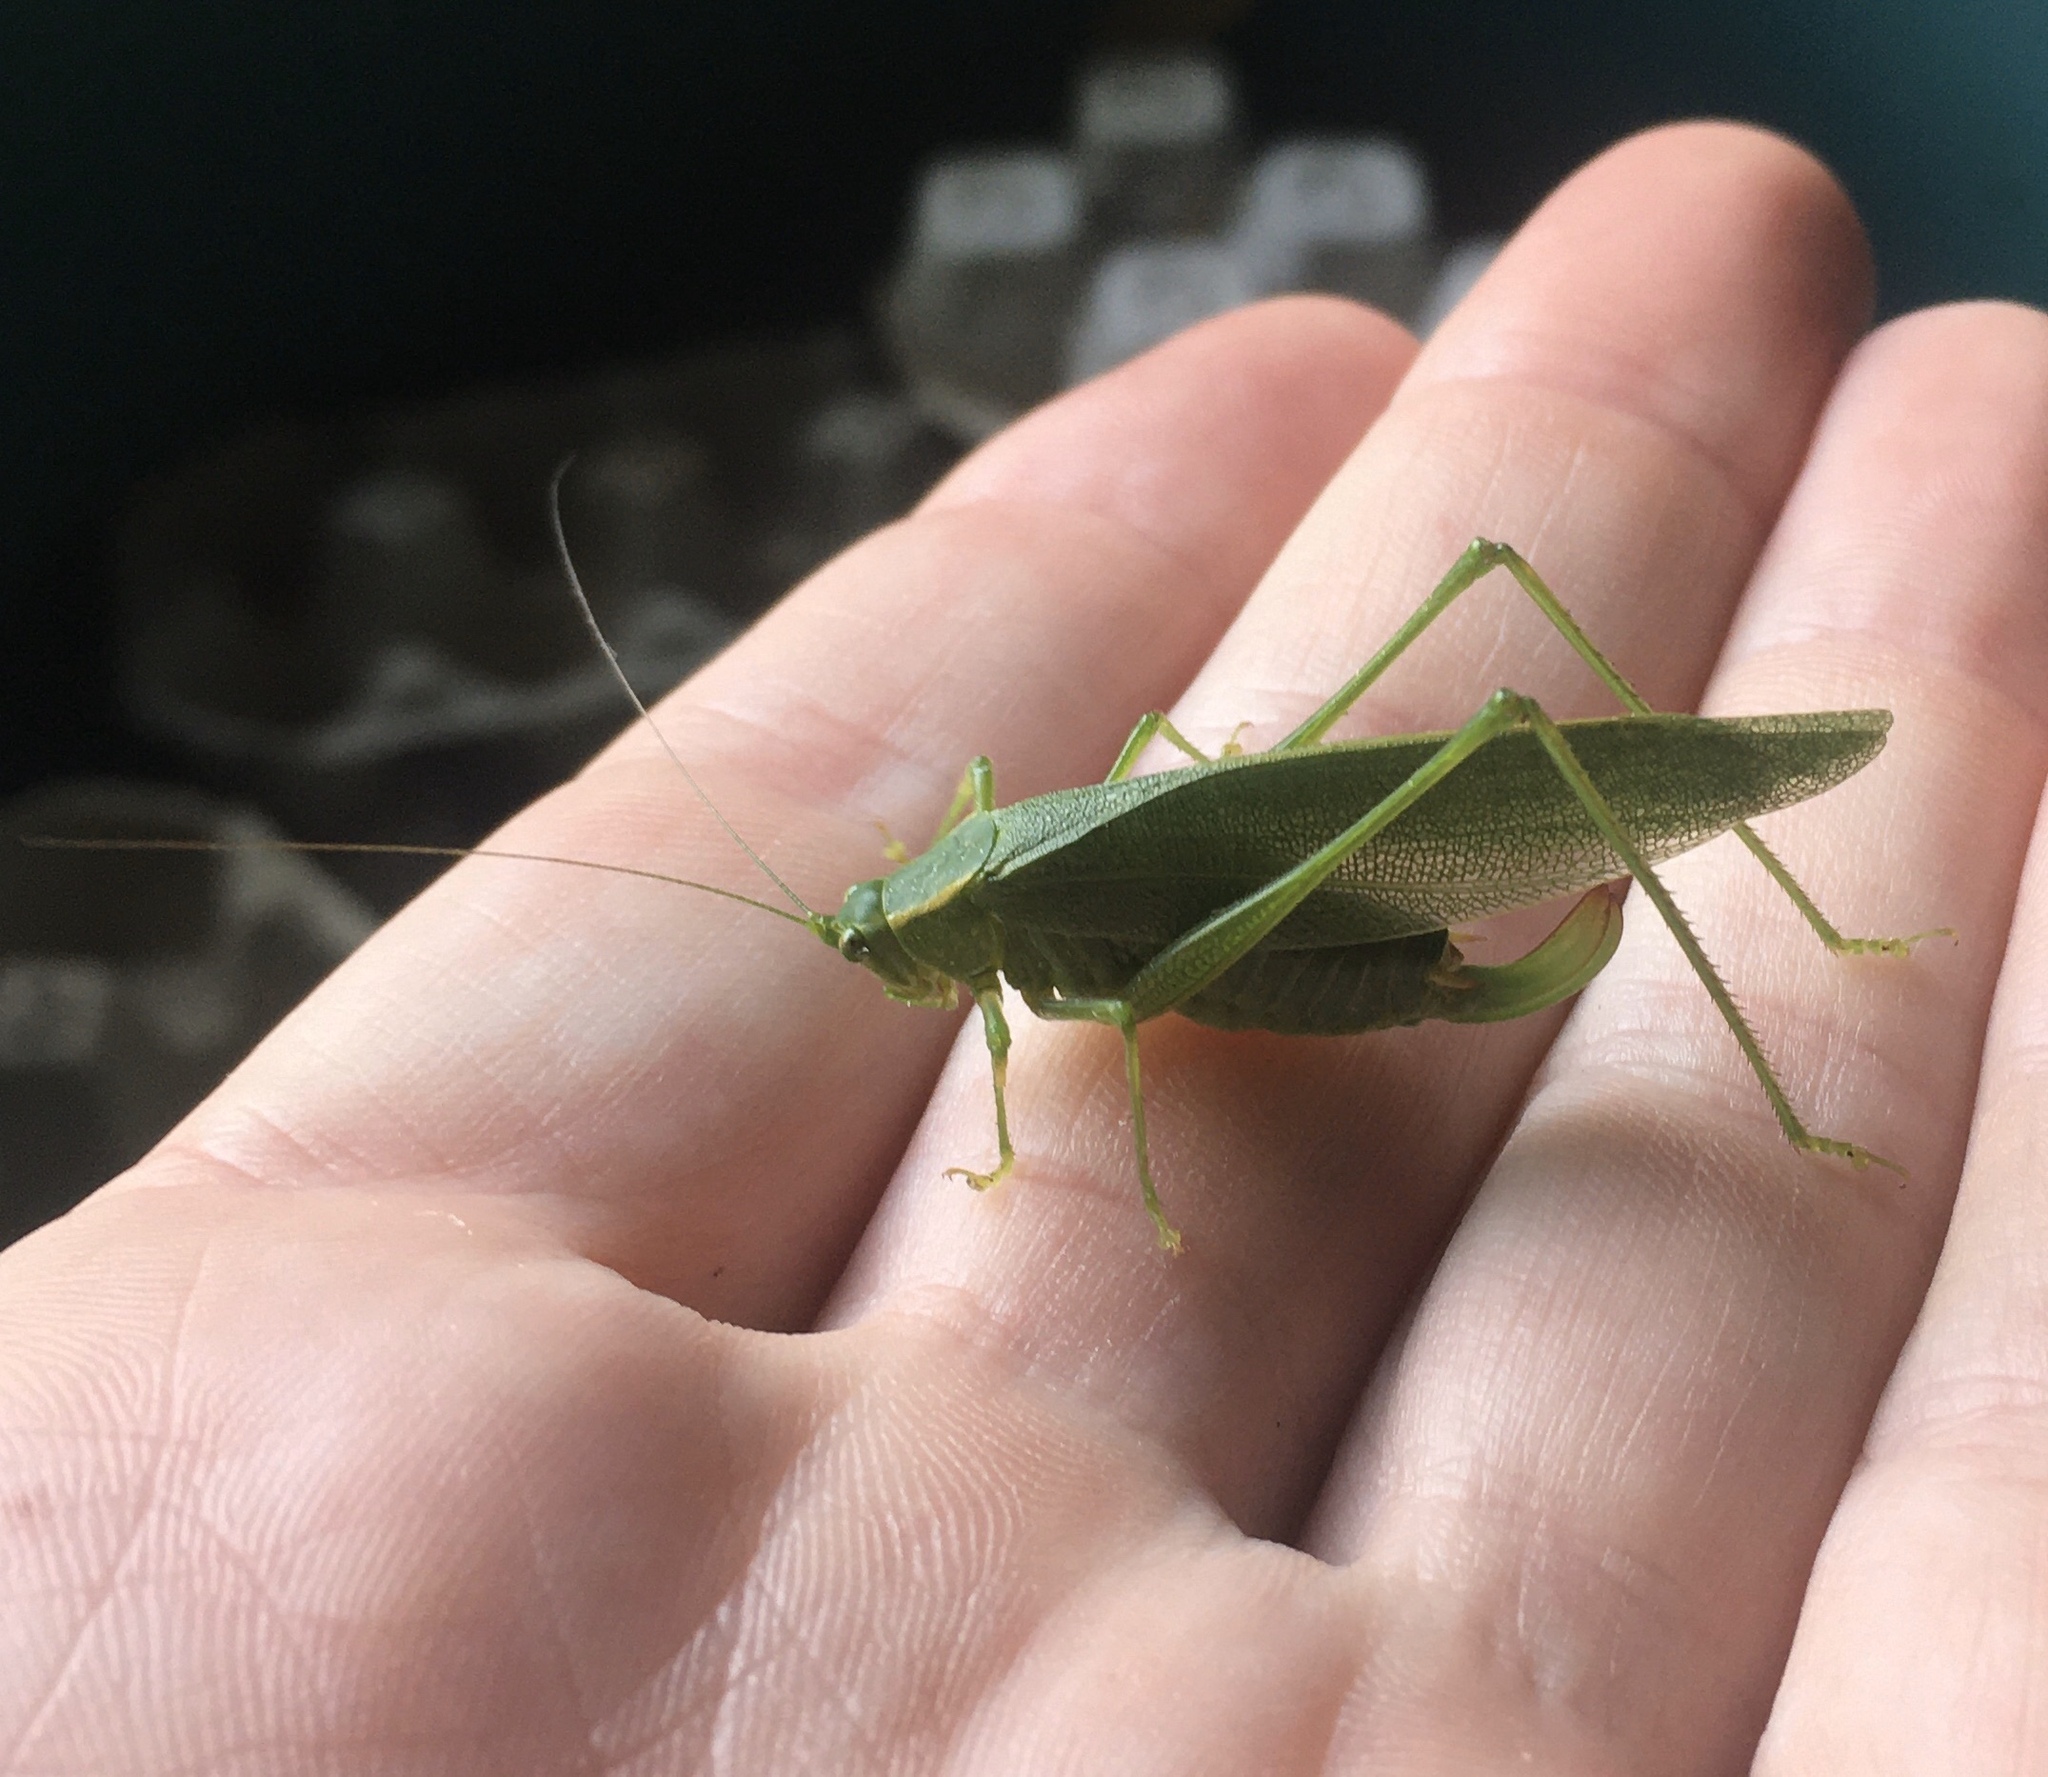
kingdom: Animalia
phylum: Arthropoda
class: Insecta
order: Orthoptera
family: Tettigoniidae
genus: Scudderia
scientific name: Scudderia septentrionalis
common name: Northern bush-katydid
